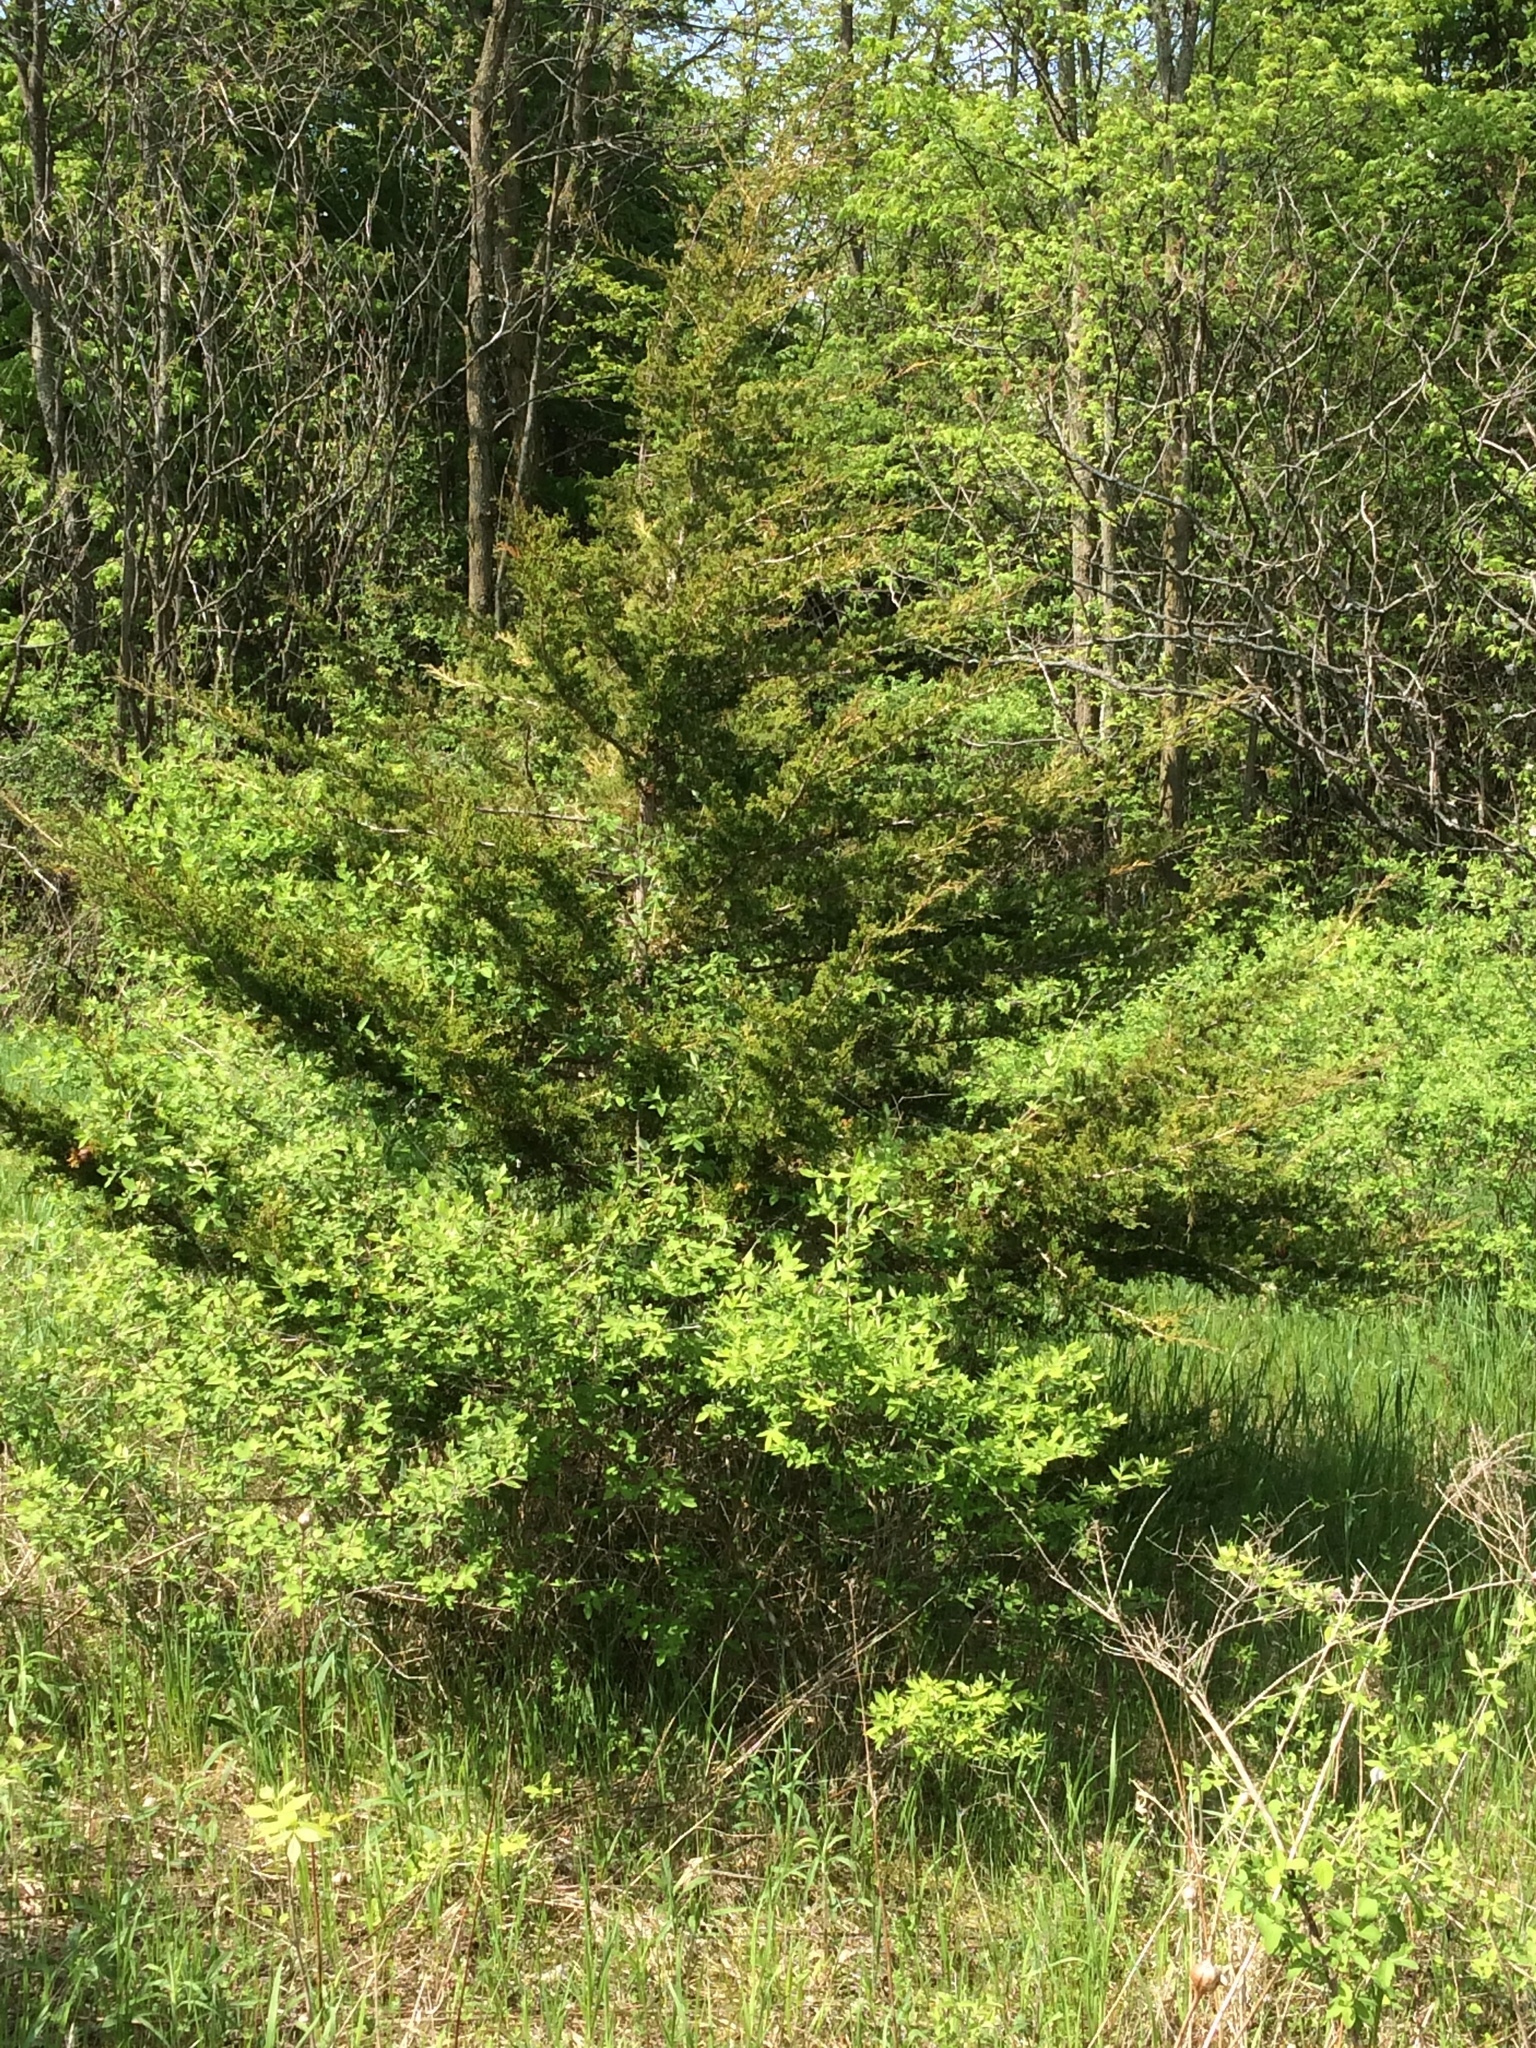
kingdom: Plantae
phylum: Tracheophyta
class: Pinopsida
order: Pinales
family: Cupressaceae
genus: Juniperus
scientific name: Juniperus virginiana
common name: Red juniper
